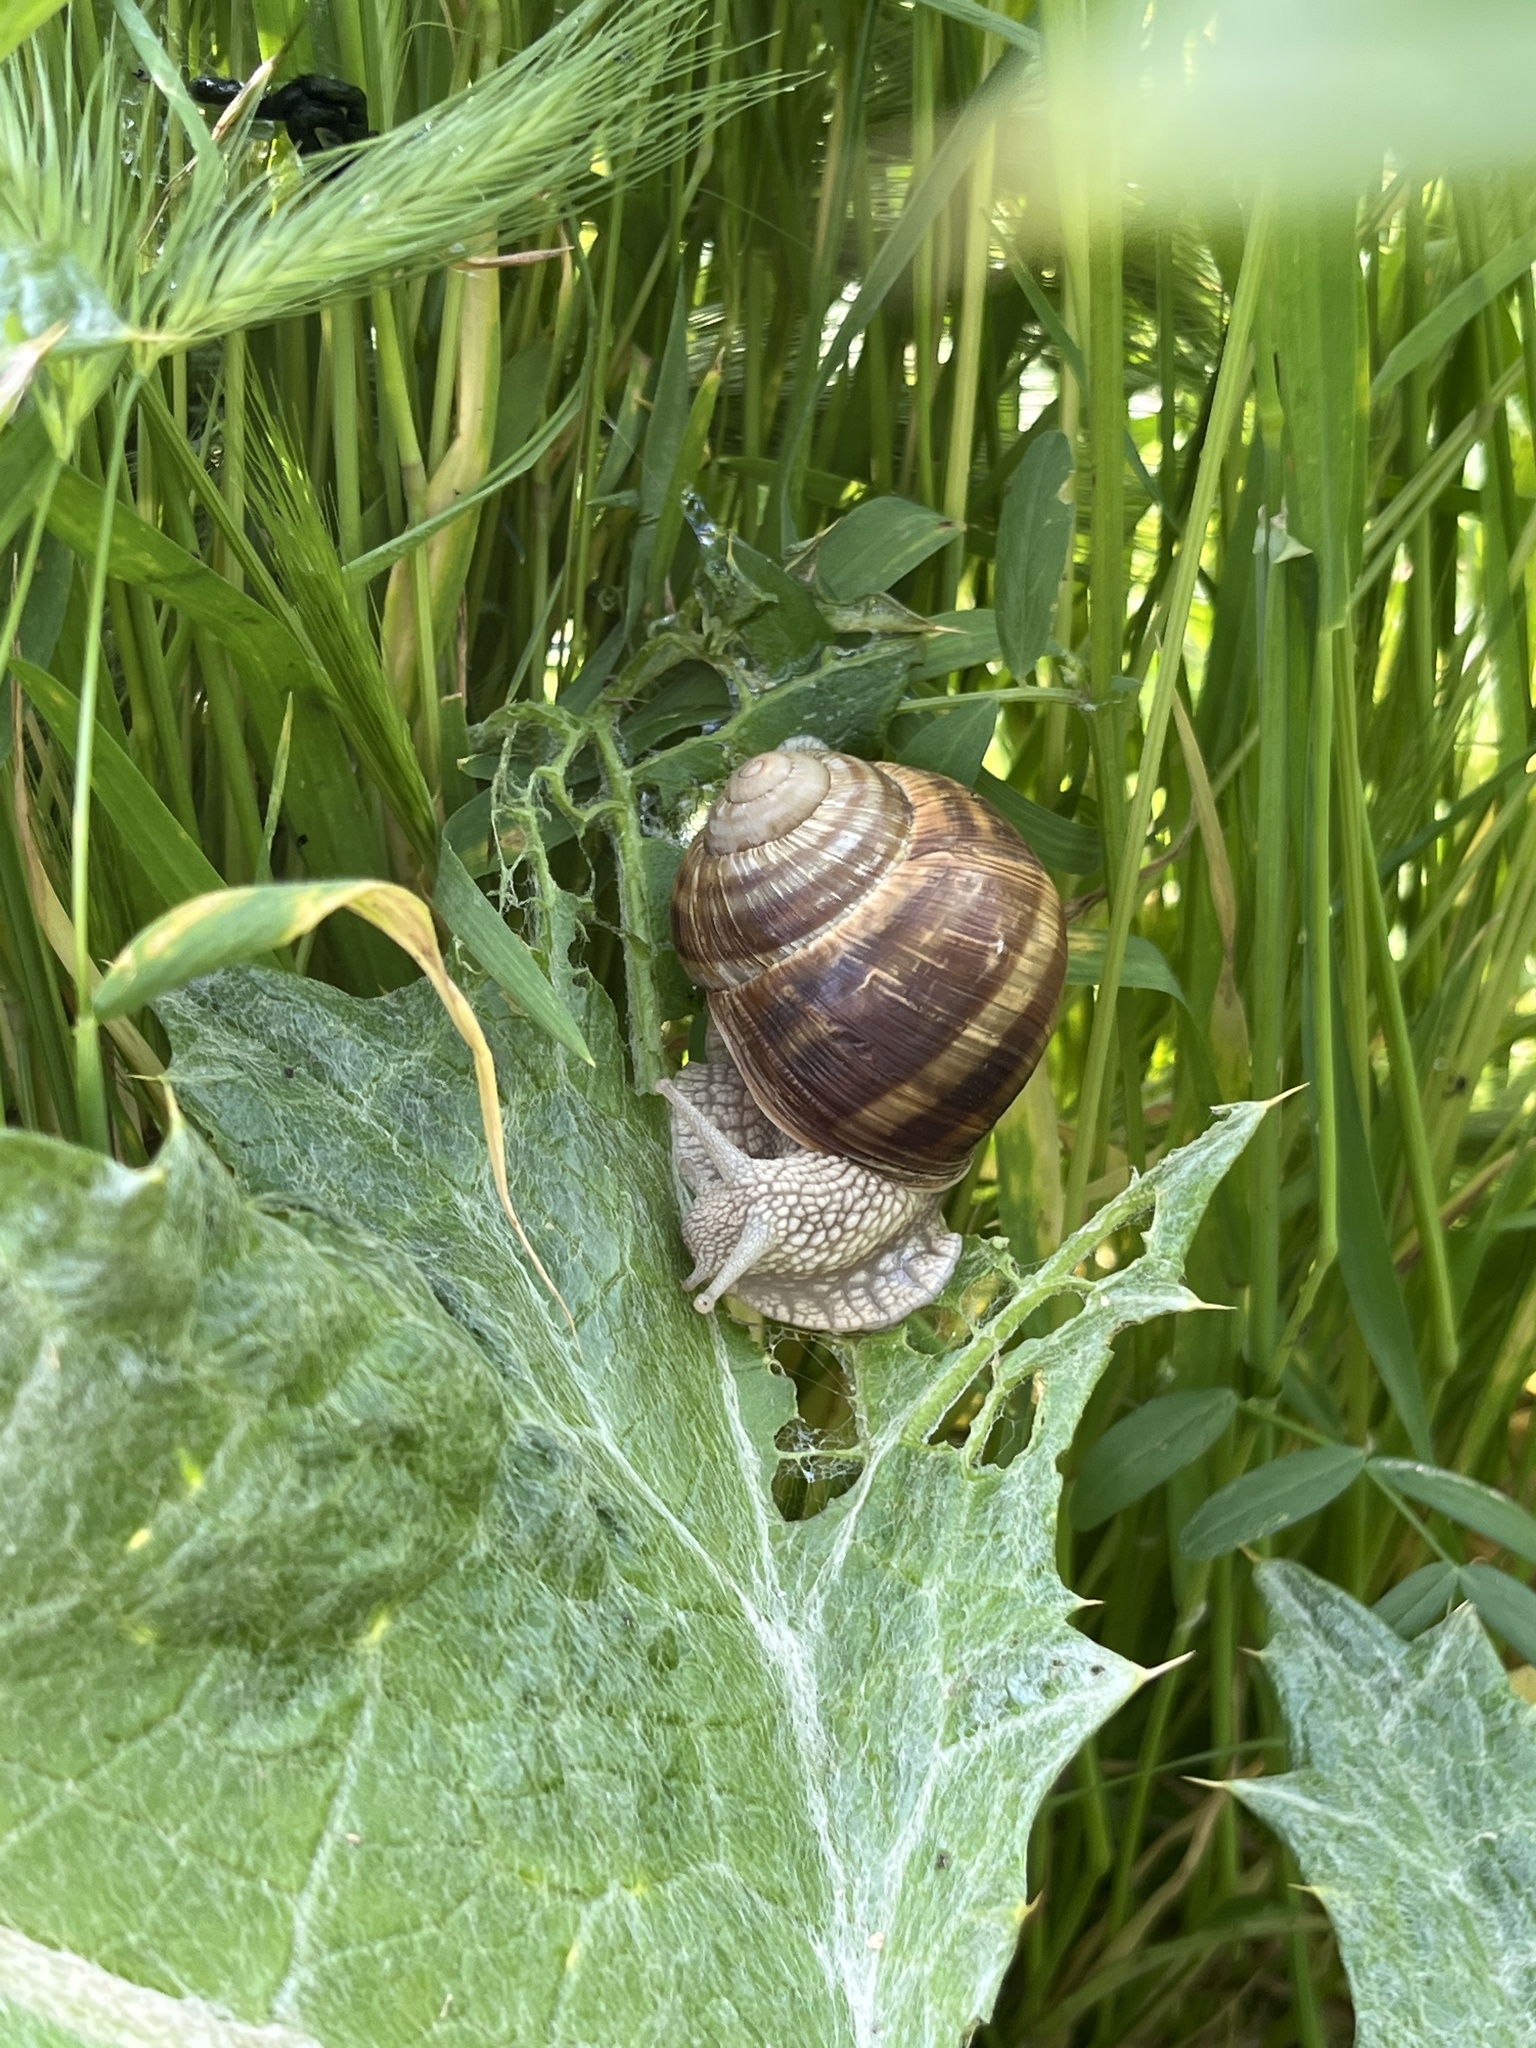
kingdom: Animalia
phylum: Mollusca
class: Gastropoda
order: Stylommatophora
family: Helicidae
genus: Helix
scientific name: Helix pomatia
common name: Roman snail
